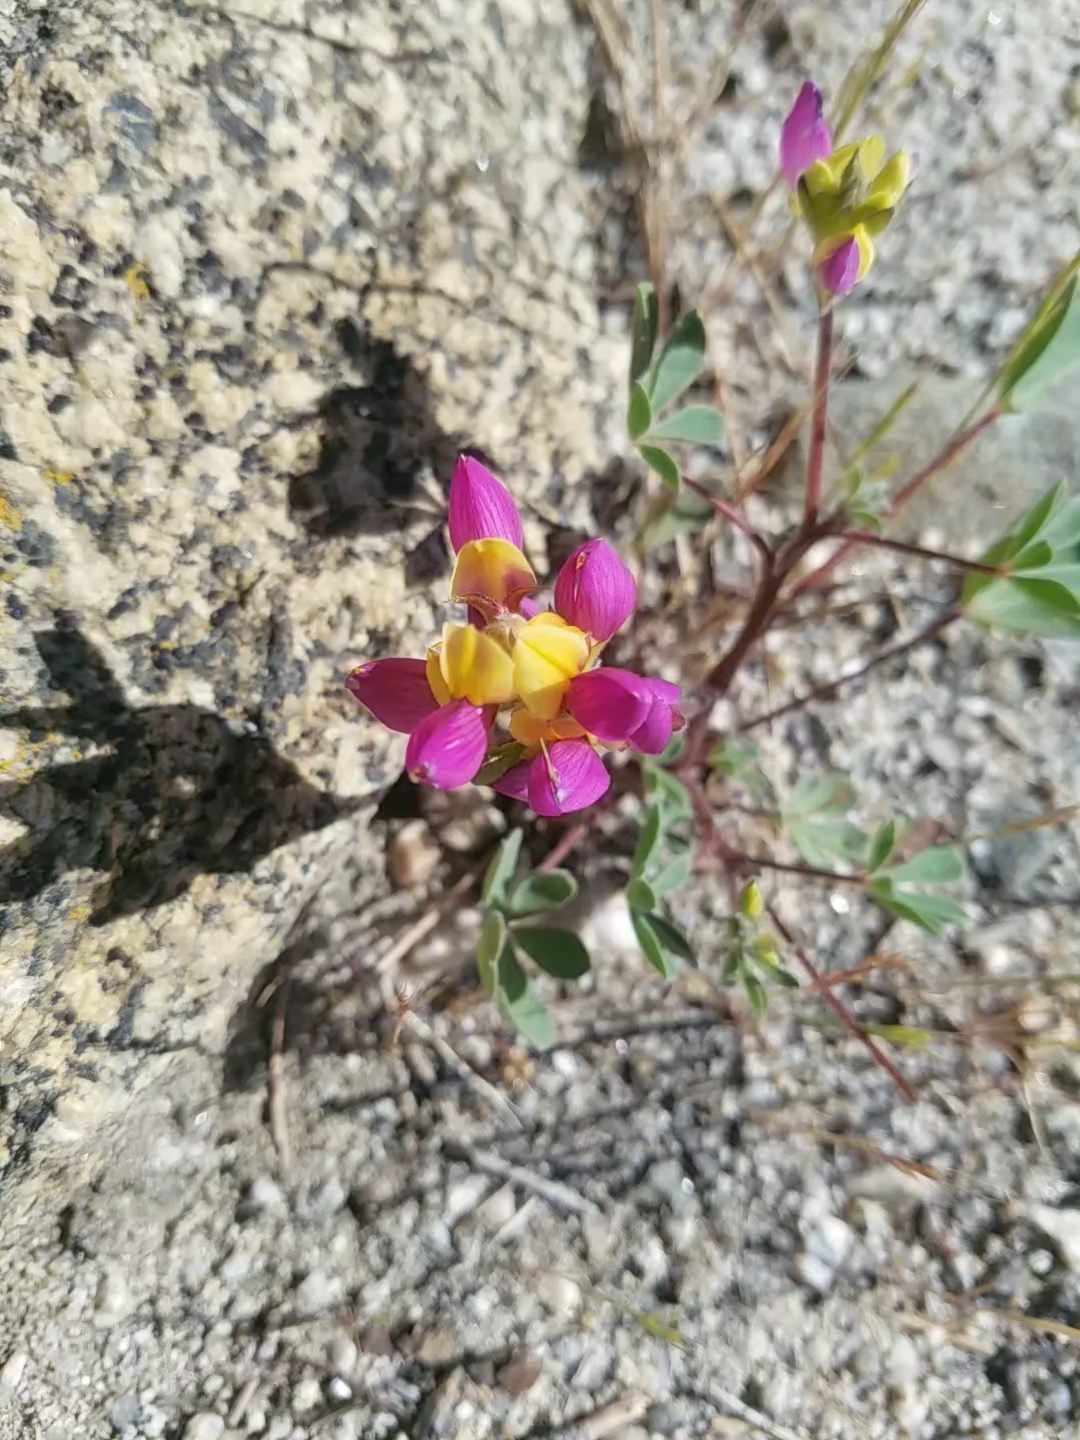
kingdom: Plantae
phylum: Tracheophyta
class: Magnoliopsida
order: Fabales
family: Fabaceae
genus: Lupinus
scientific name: Lupinus stiversii
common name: Harlequin lupine
